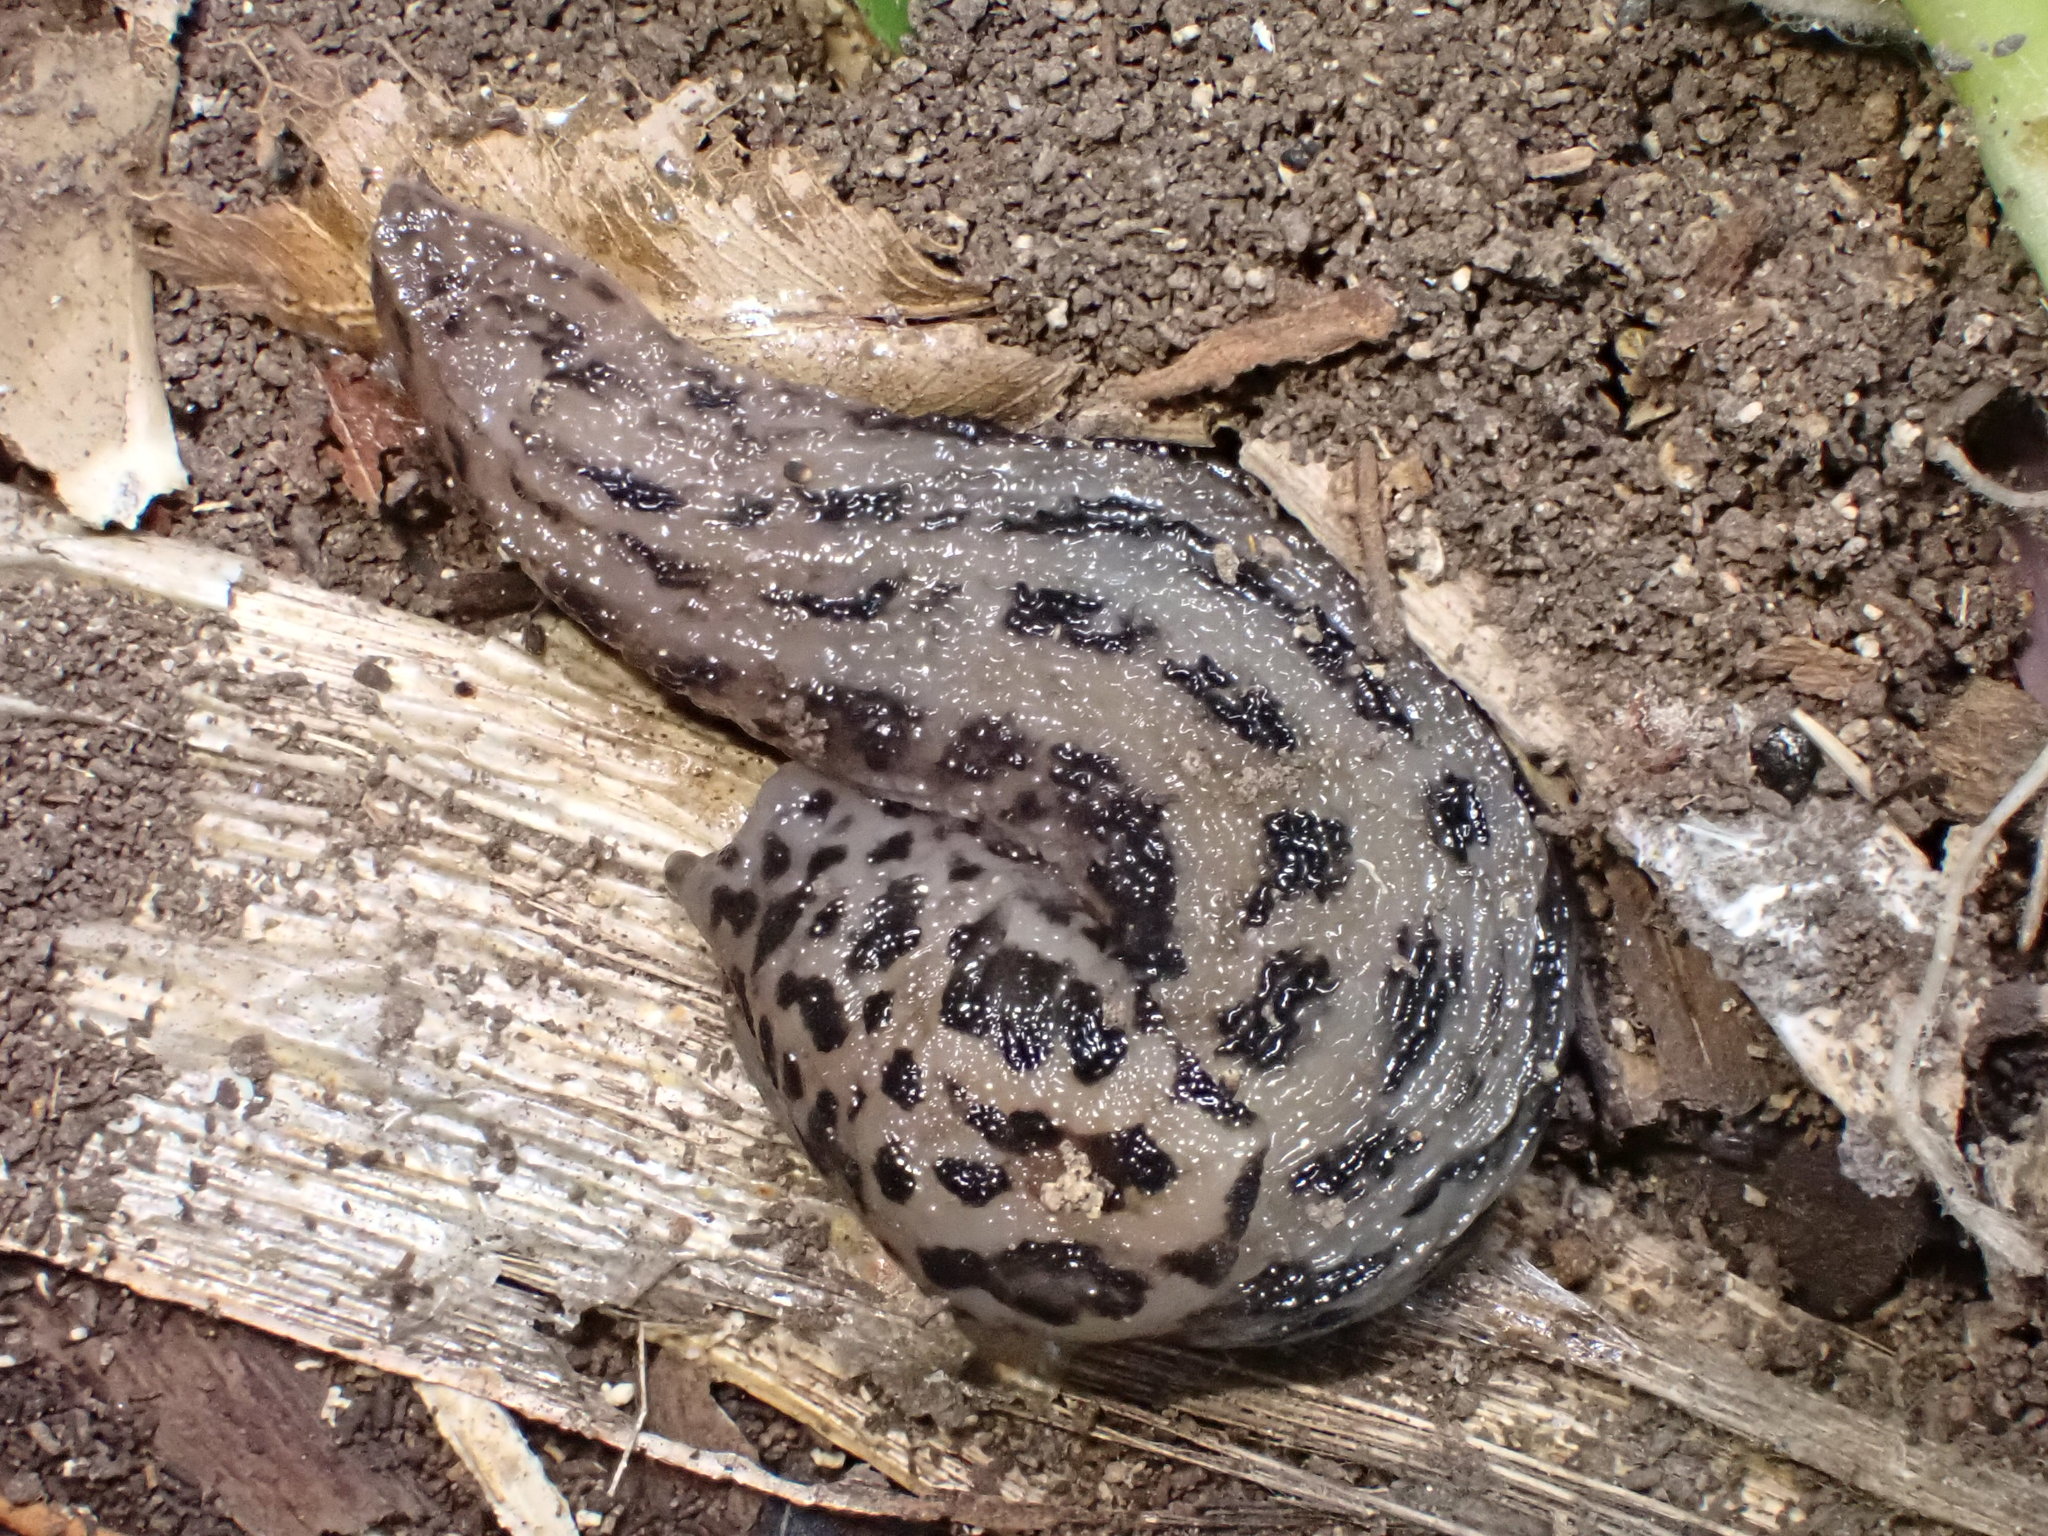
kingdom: Animalia
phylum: Mollusca
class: Gastropoda
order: Stylommatophora
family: Limacidae
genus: Limax
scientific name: Limax maximus
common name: Great grey slug
